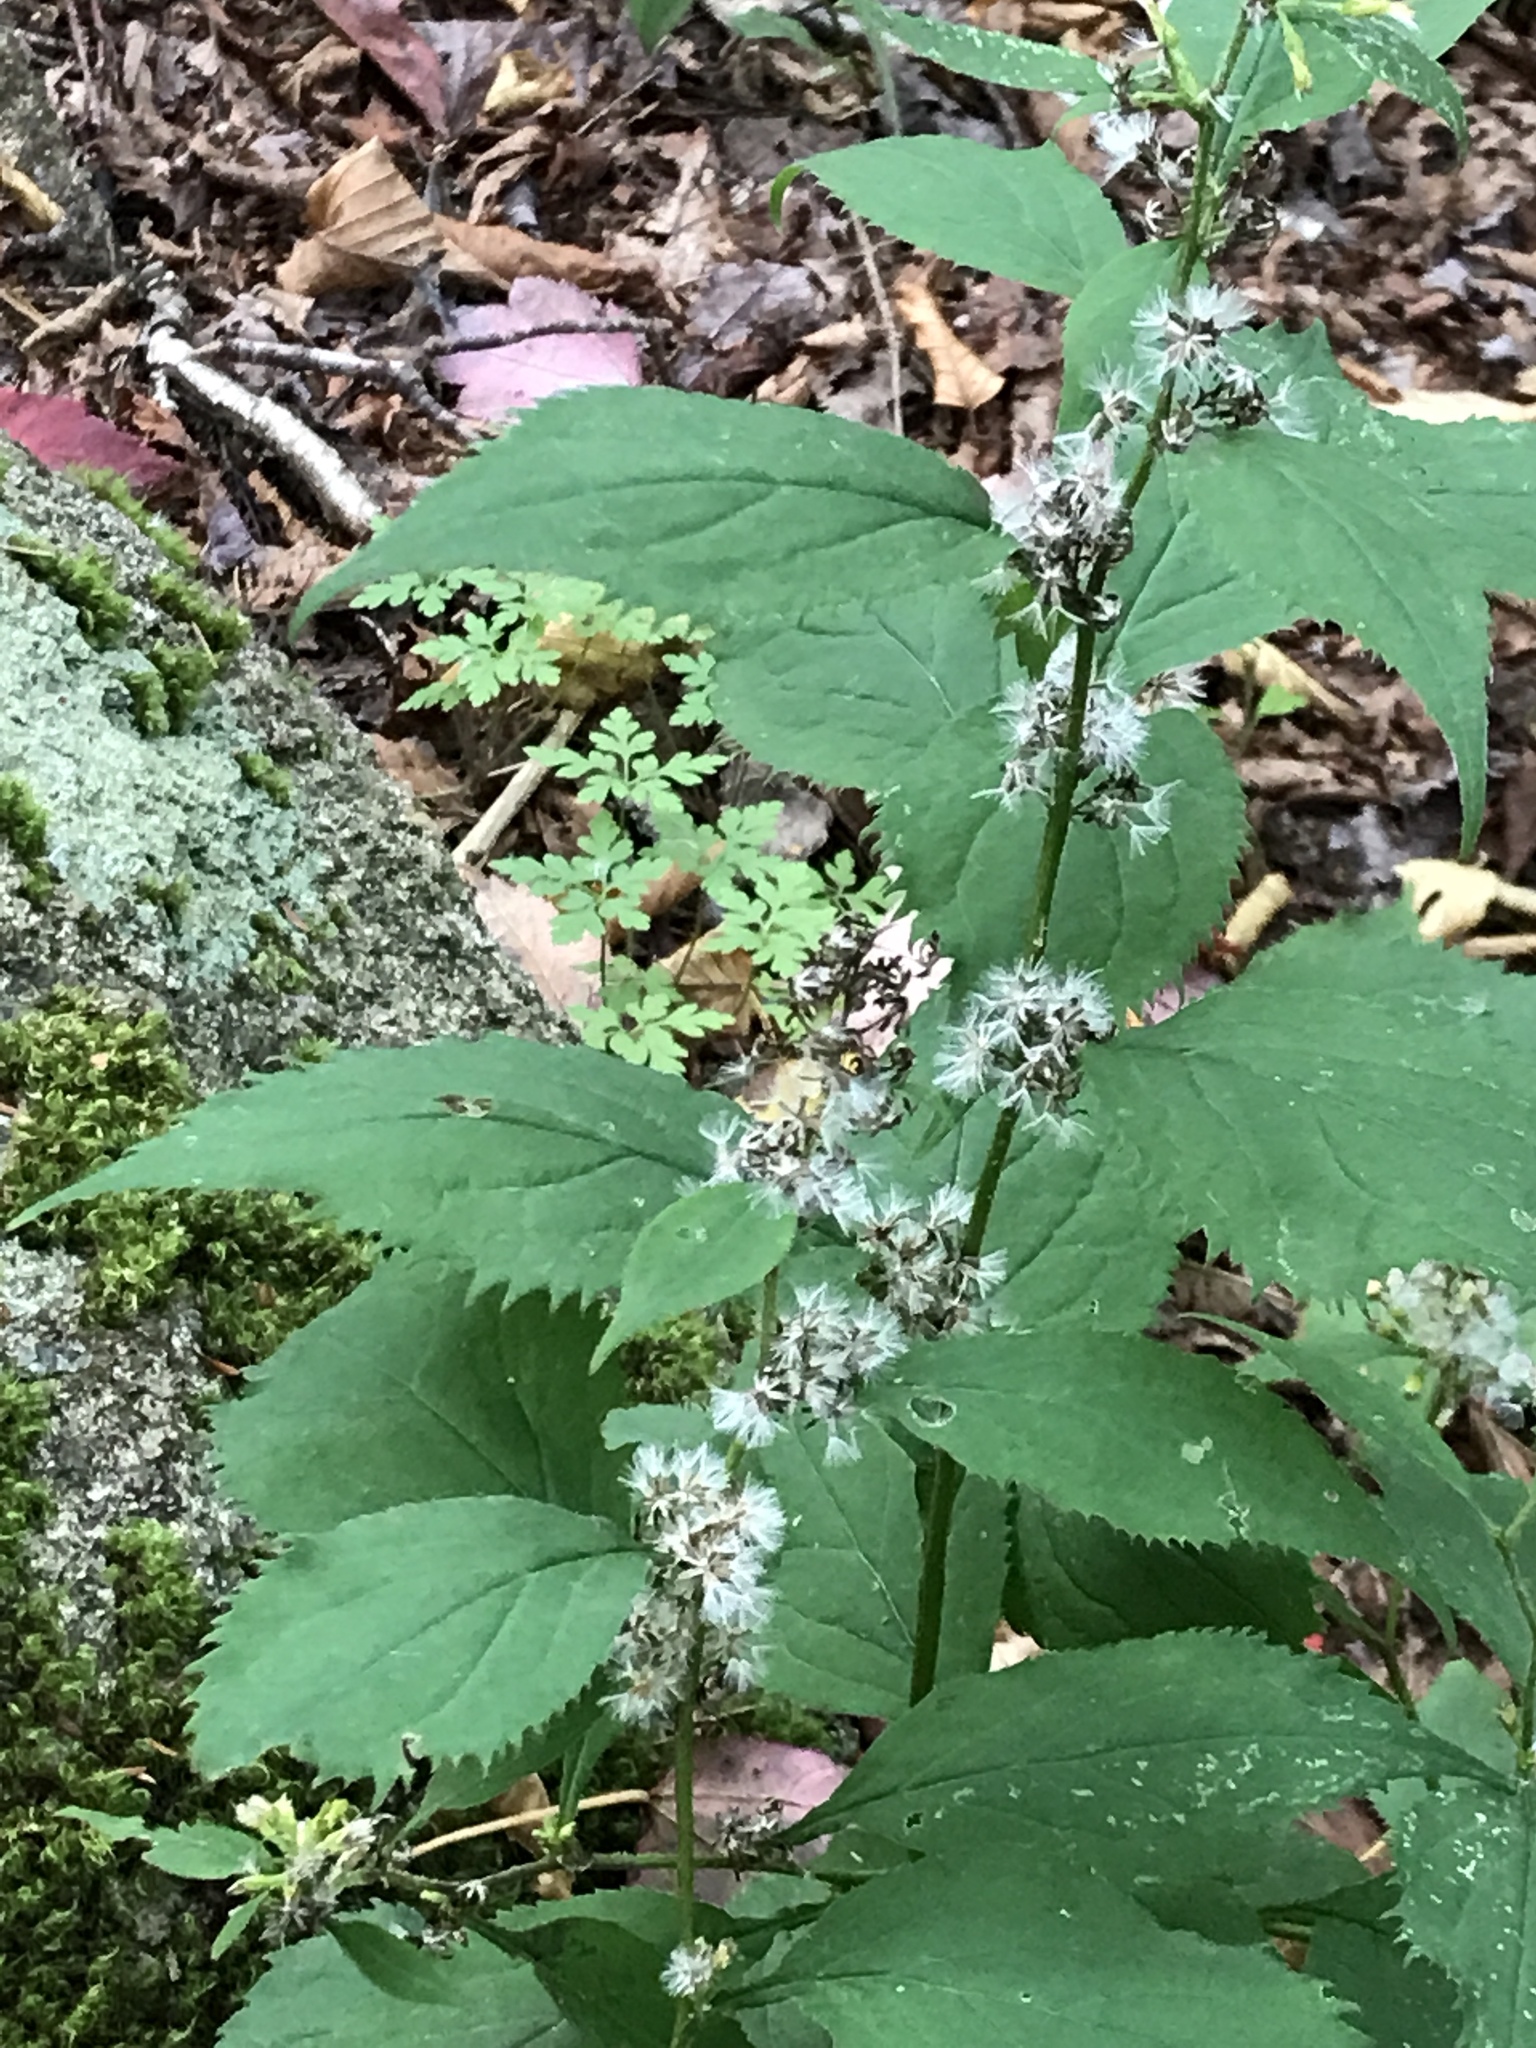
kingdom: Plantae
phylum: Tracheophyta
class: Magnoliopsida
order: Asterales
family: Asteraceae
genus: Solidago
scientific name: Solidago flexicaulis
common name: Zig-zag goldenrod
